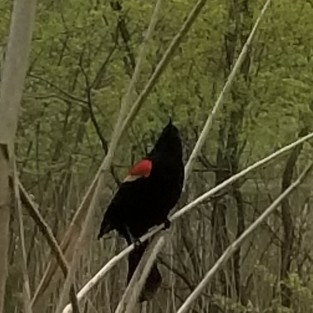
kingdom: Animalia
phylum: Chordata
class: Aves
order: Passeriformes
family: Icteridae
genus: Agelaius
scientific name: Agelaius phoeniceus
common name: Red-winged blackbird
